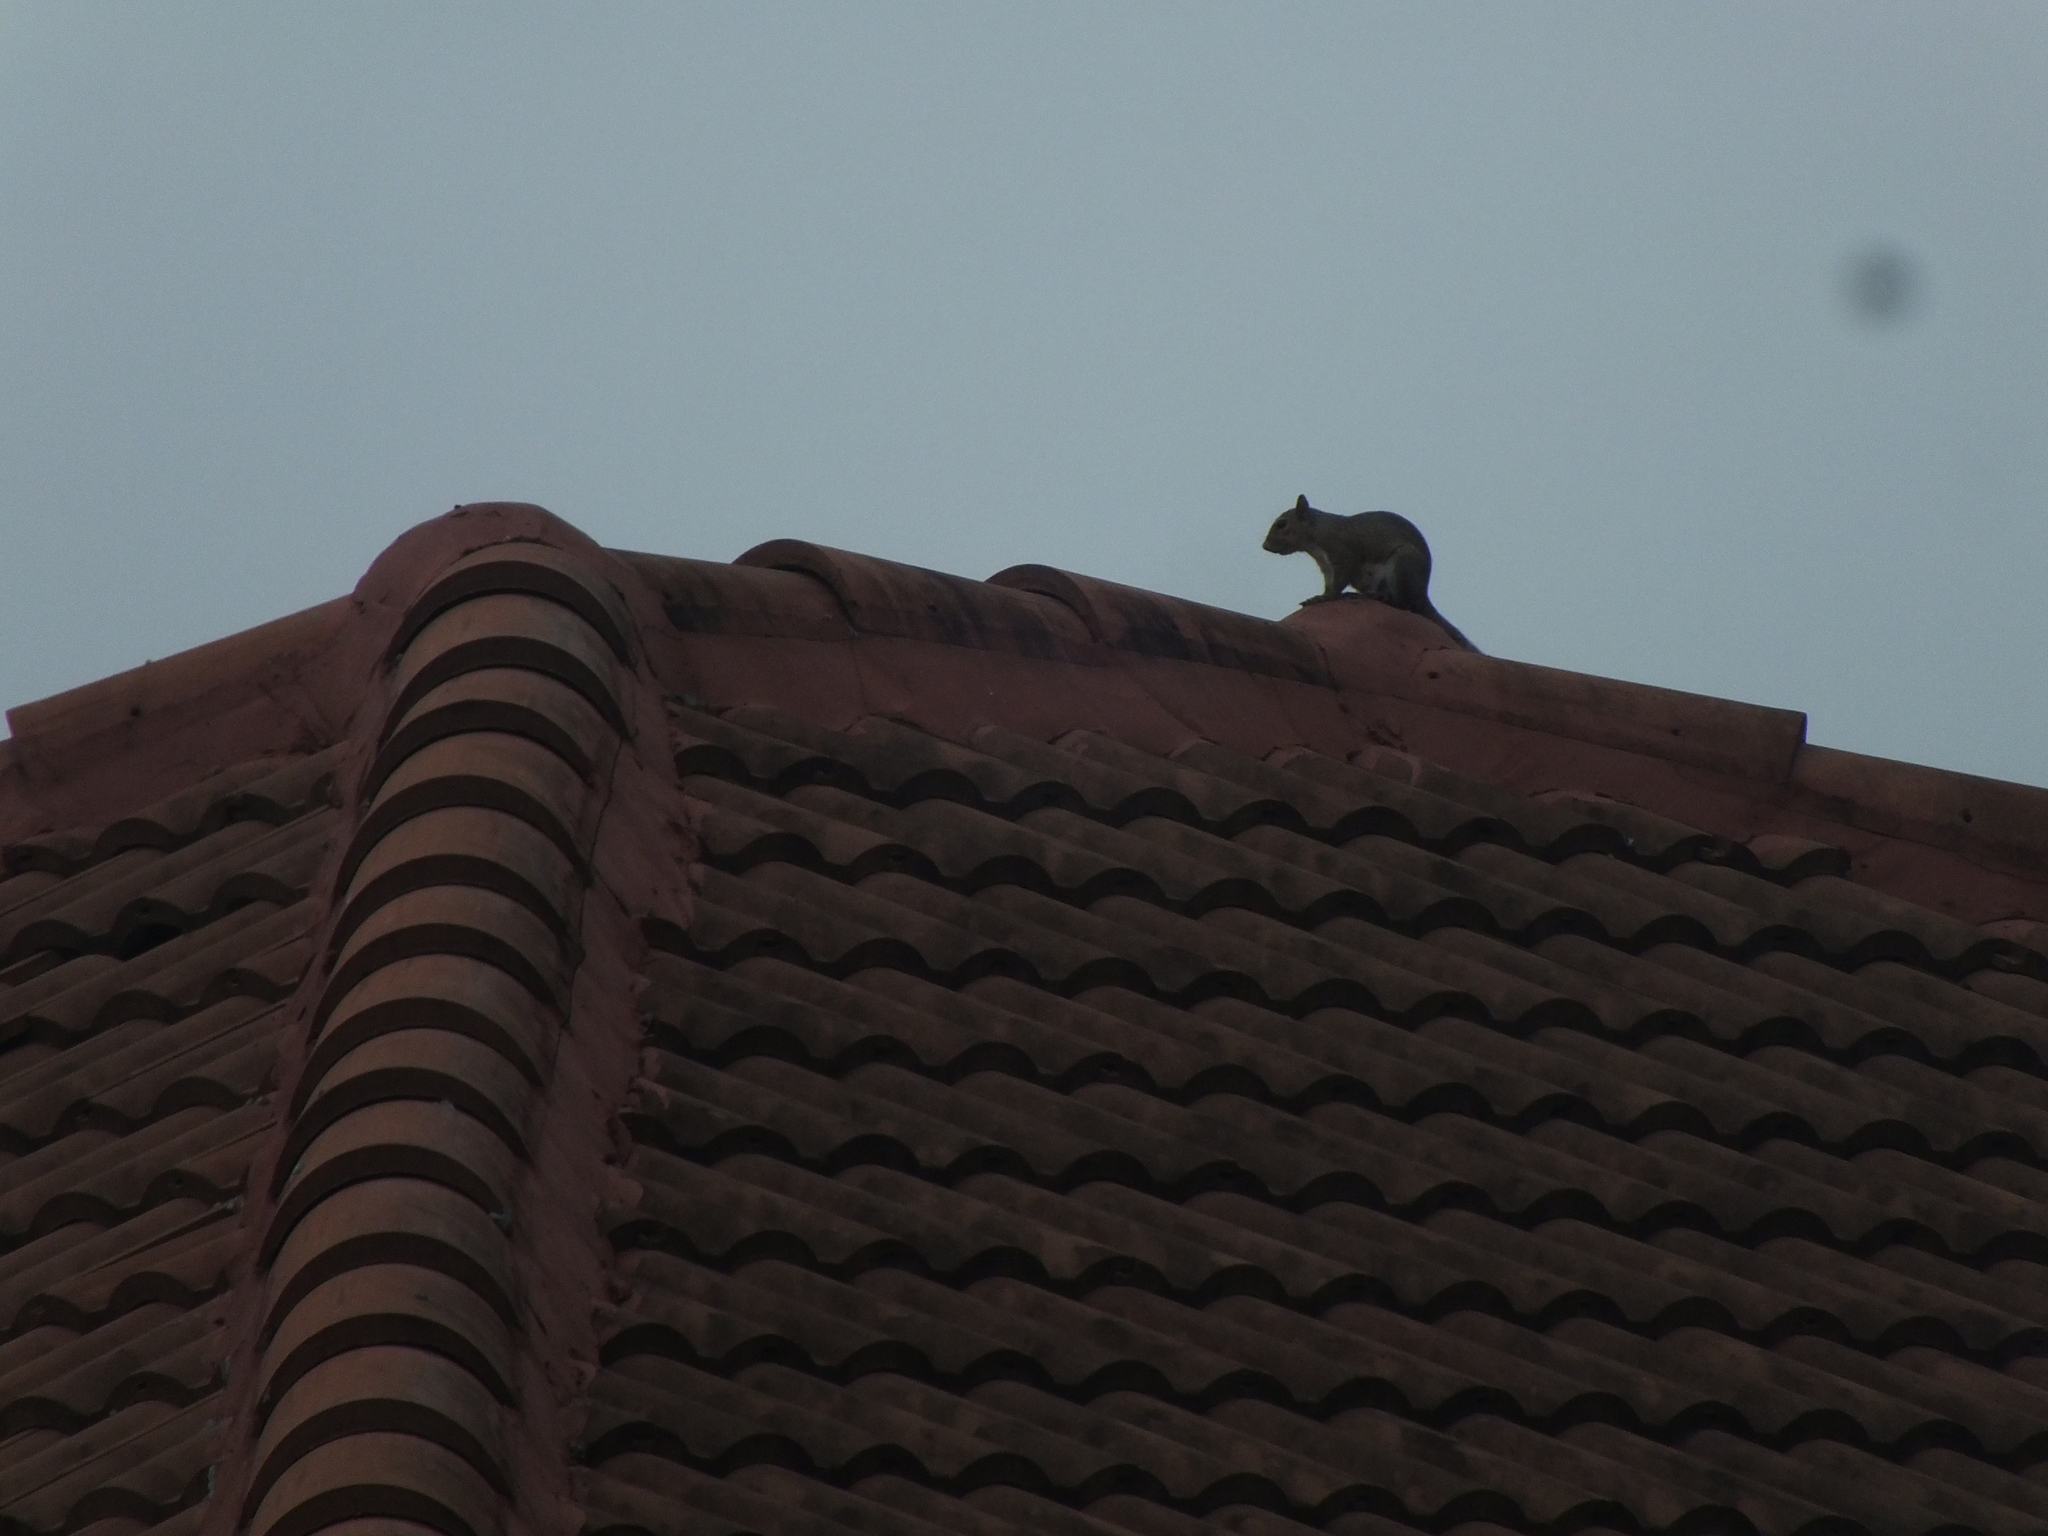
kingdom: Animalia
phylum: Chordata
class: Mammalia
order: Rodentia
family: Sciuridae
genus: Sciurus
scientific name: Sciurus carolinensis
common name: Eastern gray squirrel
